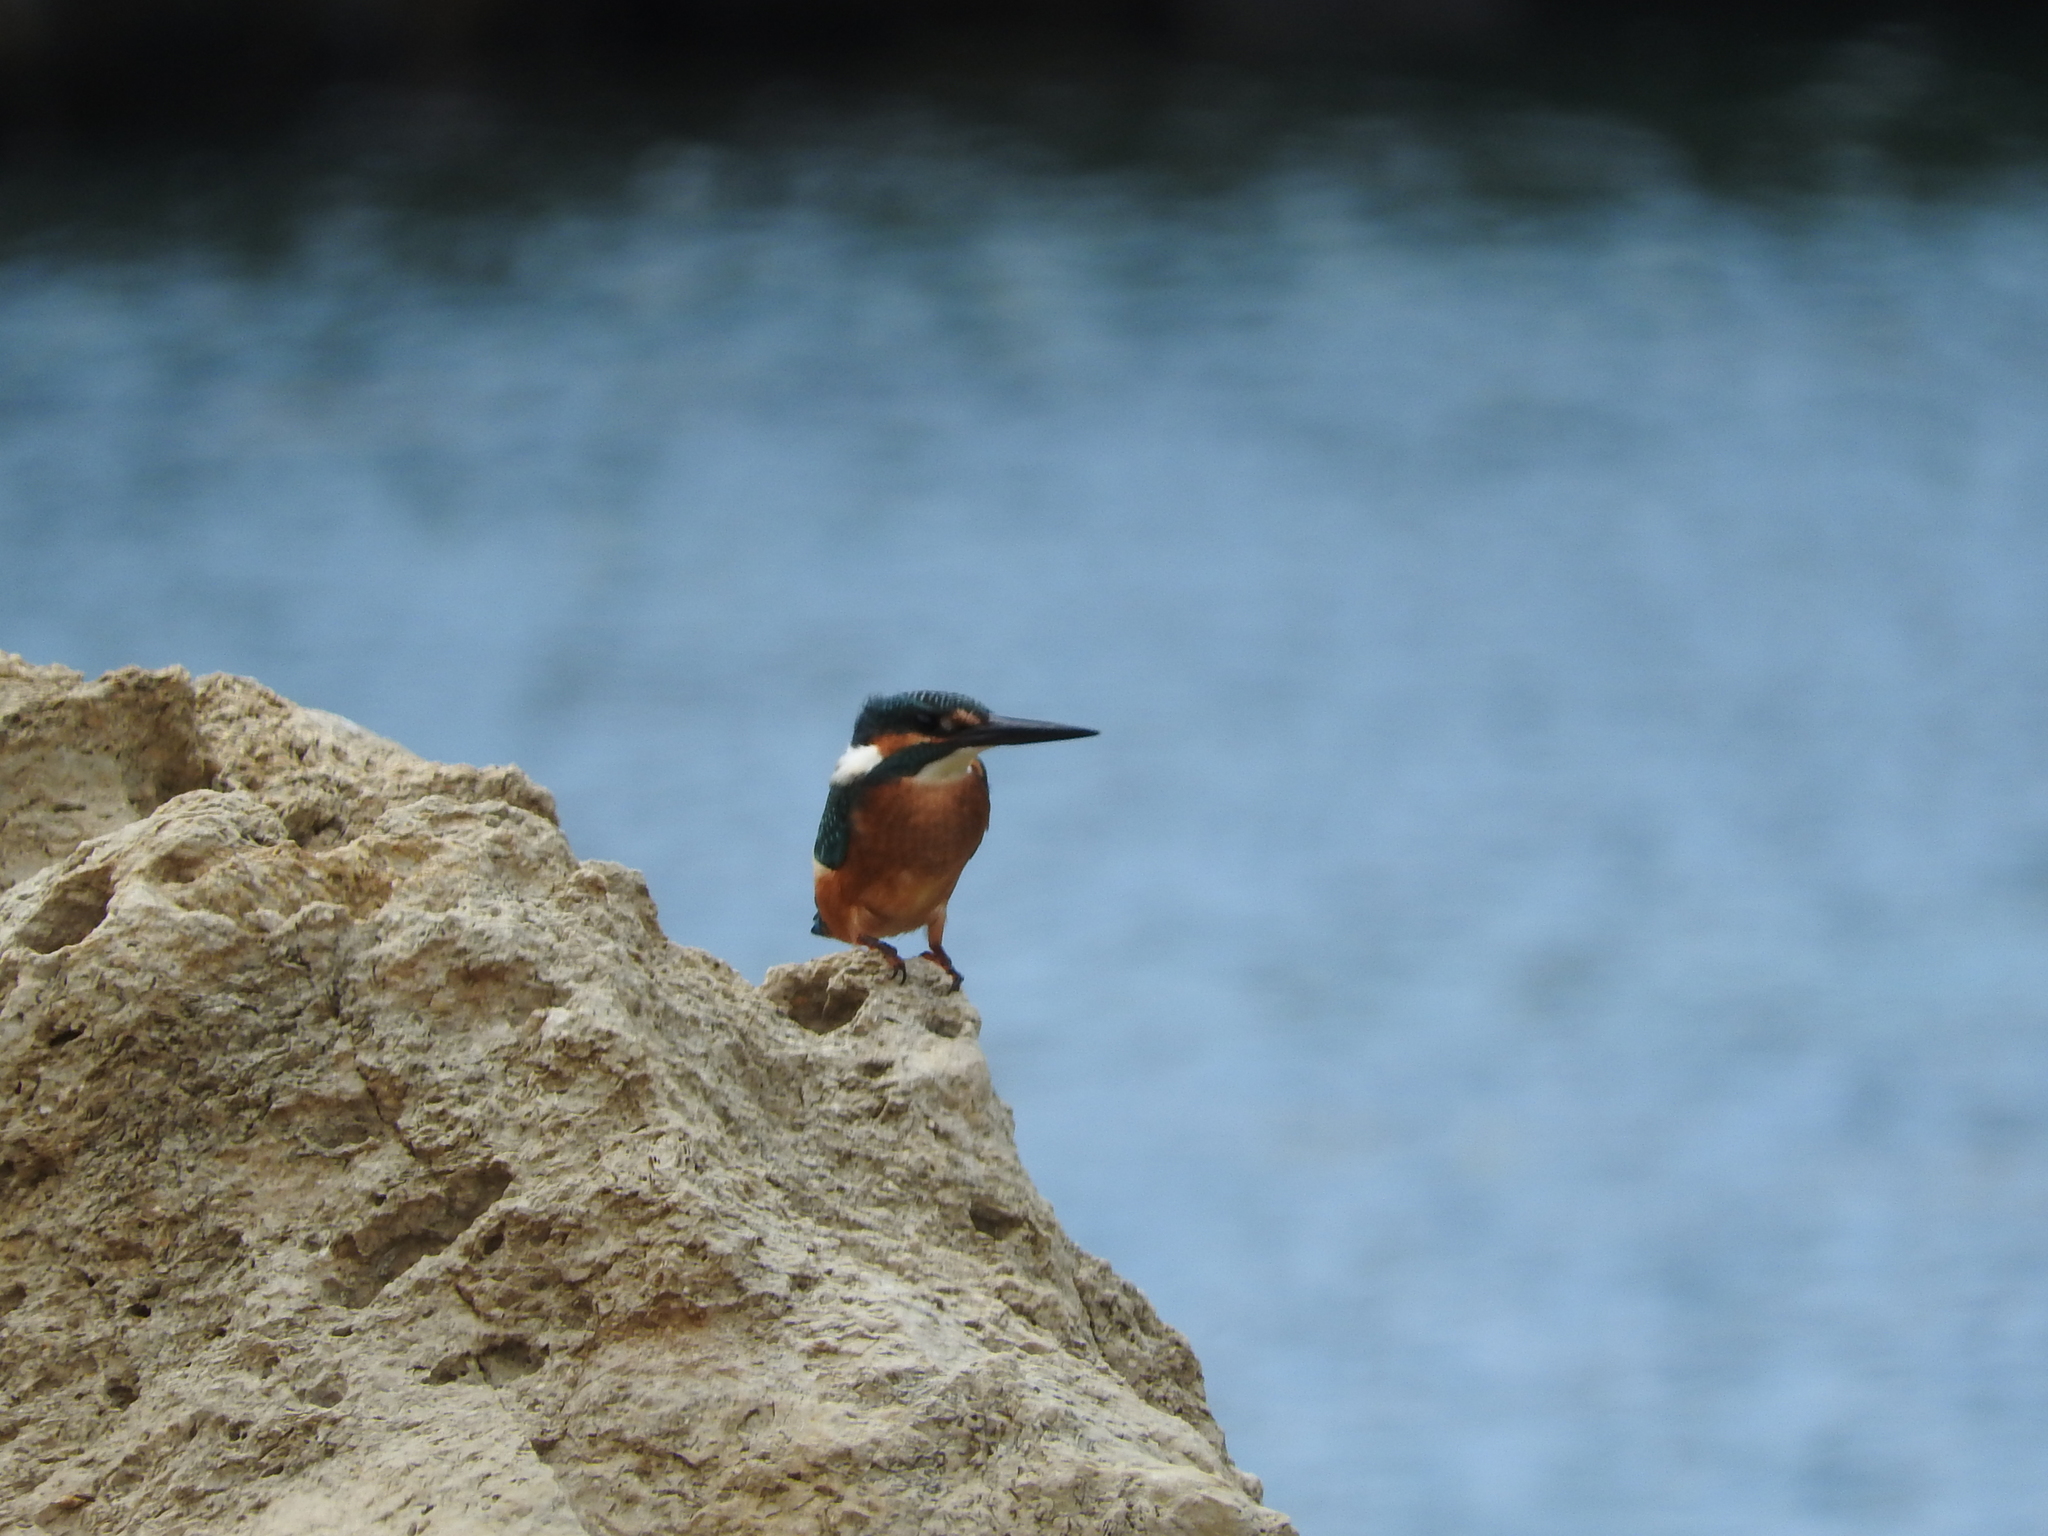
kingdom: Animalia
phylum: Chordata
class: Aves
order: Coraciiformes
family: Alcedinidae
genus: Alcedo
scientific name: Alcedo atthis
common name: Common kingfisher
